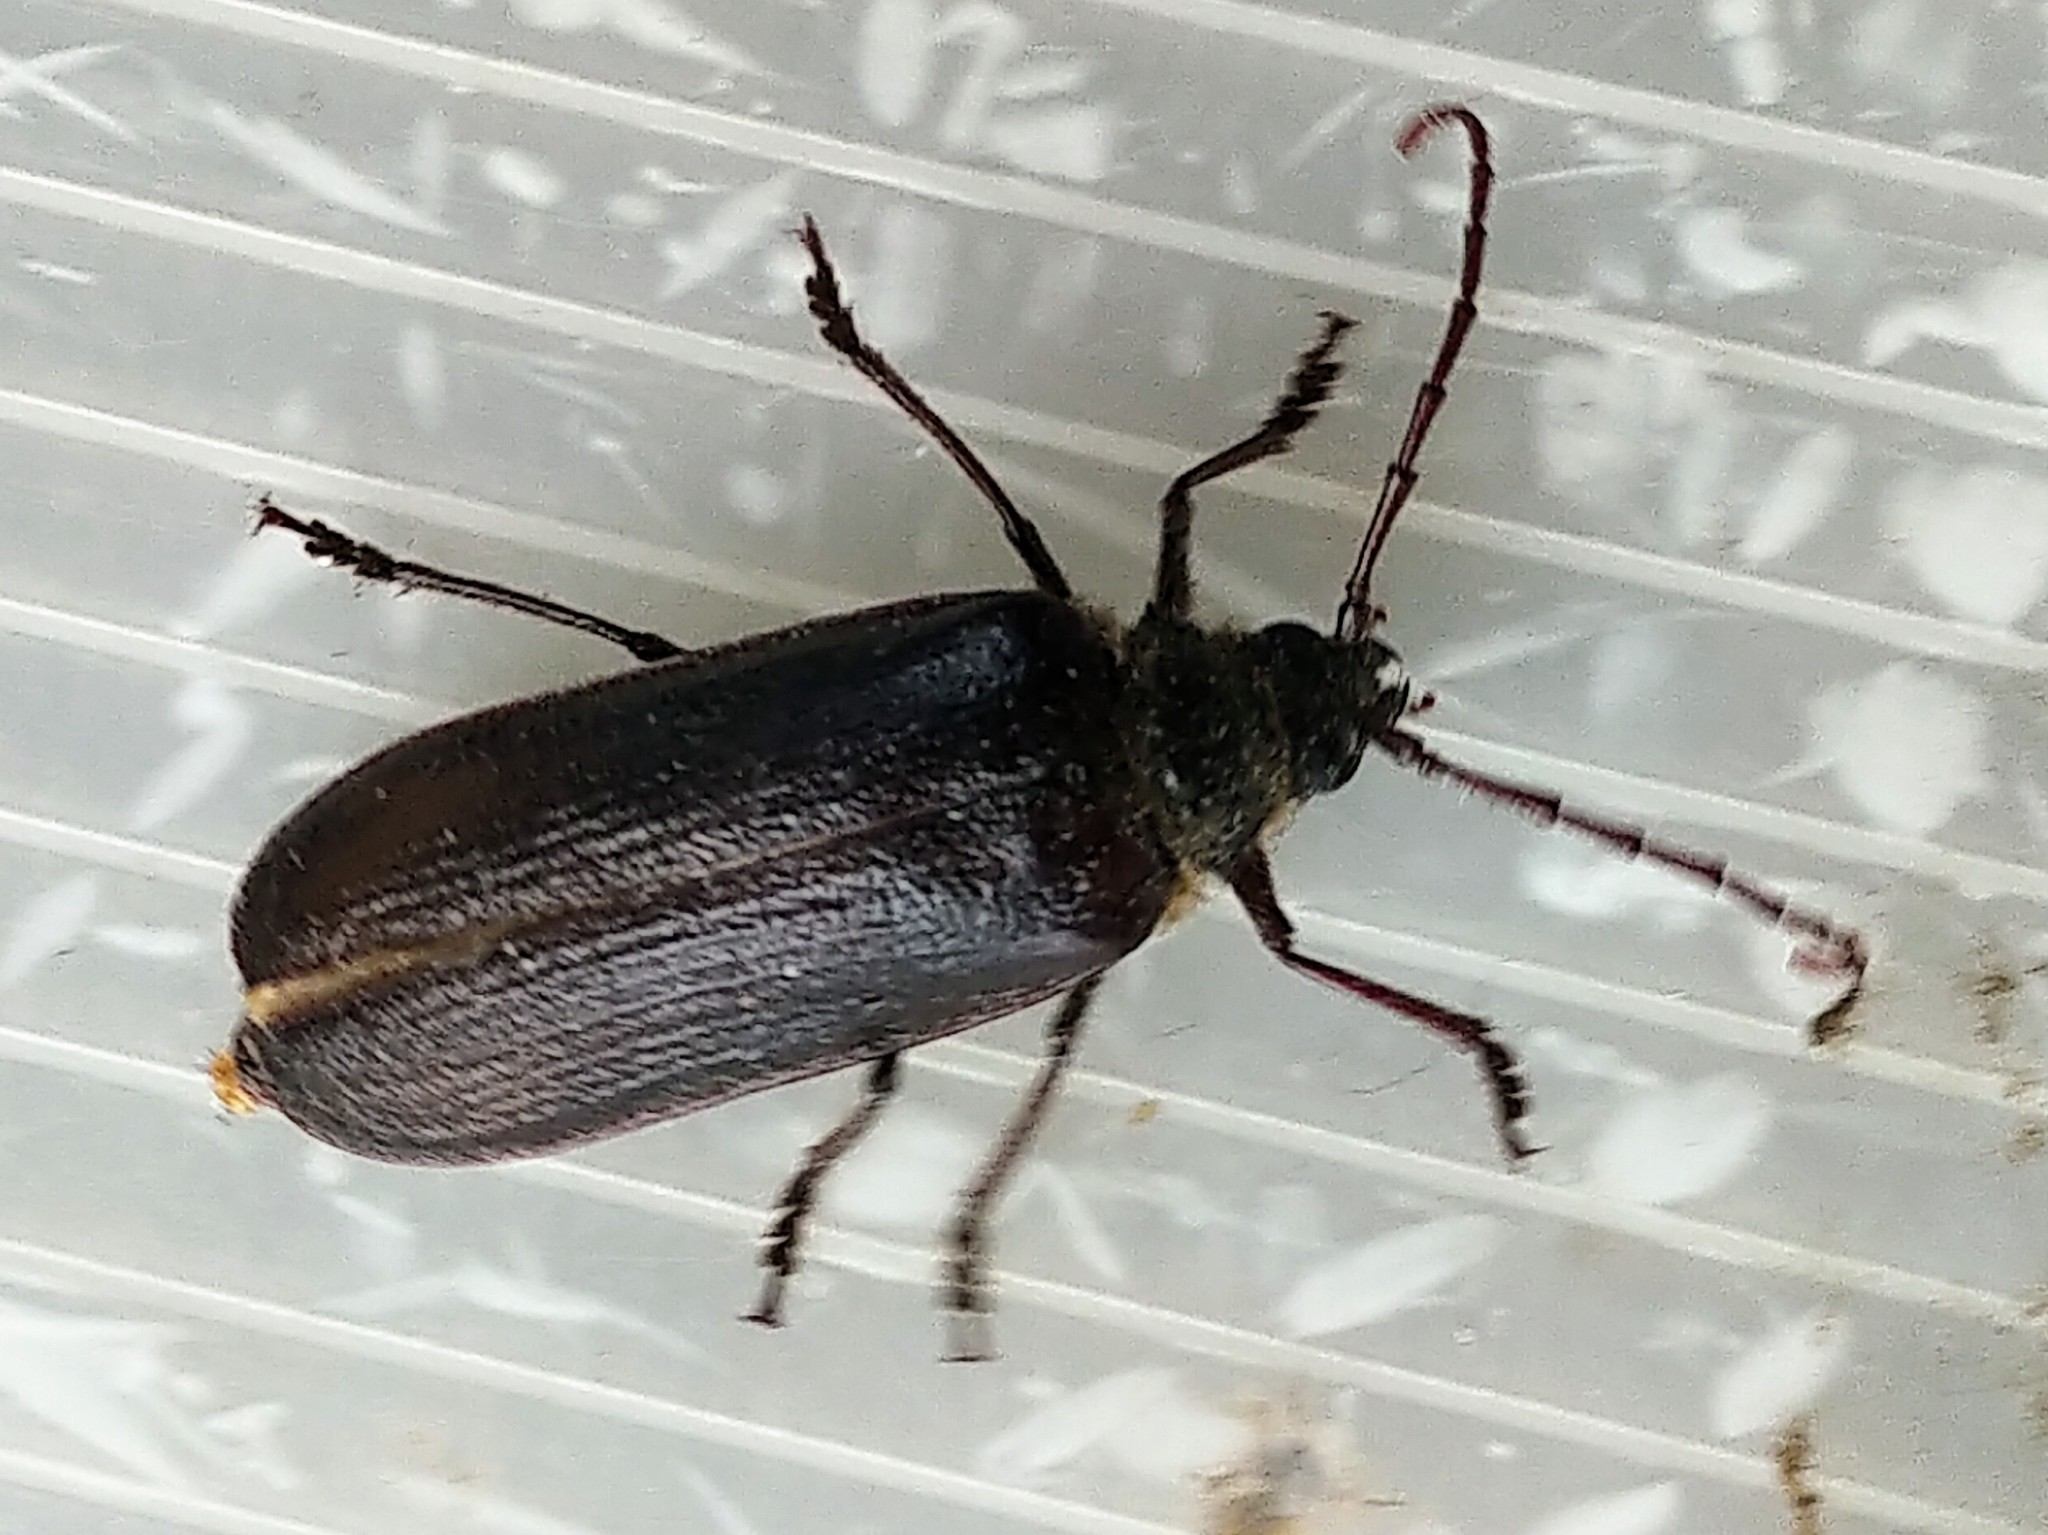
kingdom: Animalia
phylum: Arthropoda
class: Insecta
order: Coleoptera
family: Cerambycidae
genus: Tragosoma
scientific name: Tragosoma harrisii
